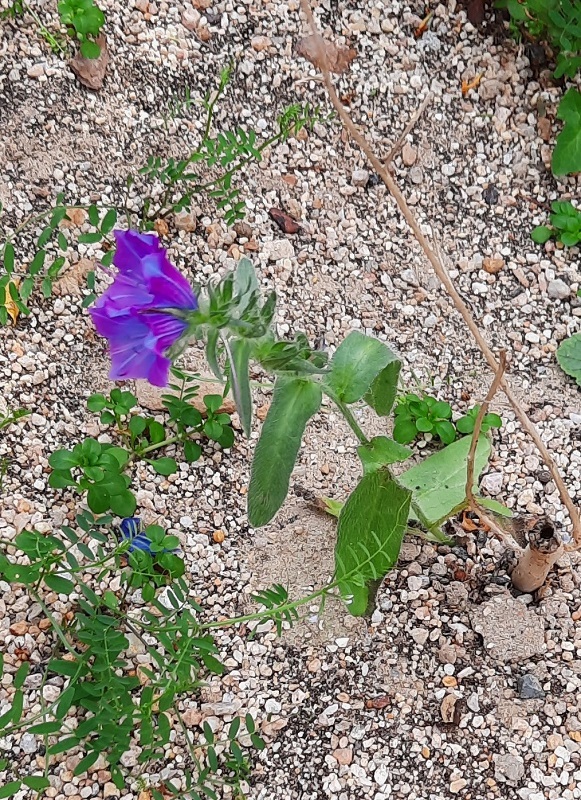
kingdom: Plantae
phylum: Tracheophyta
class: Magnoliopsida
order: Boraginales
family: Boraginaceae
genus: Echium
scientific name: Echium plantagineum
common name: Purple viper's-bugloss
